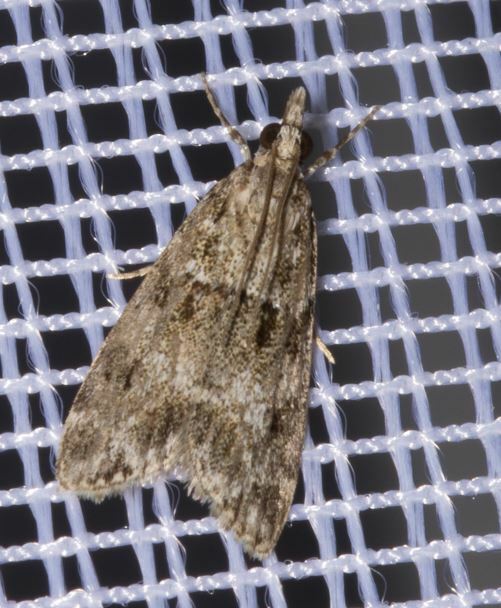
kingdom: Animalia
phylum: Arthropoda
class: Insecta
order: Lepidoptera
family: Crambidae
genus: Eudonia
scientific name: Eudonia mercurella
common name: Small grey
